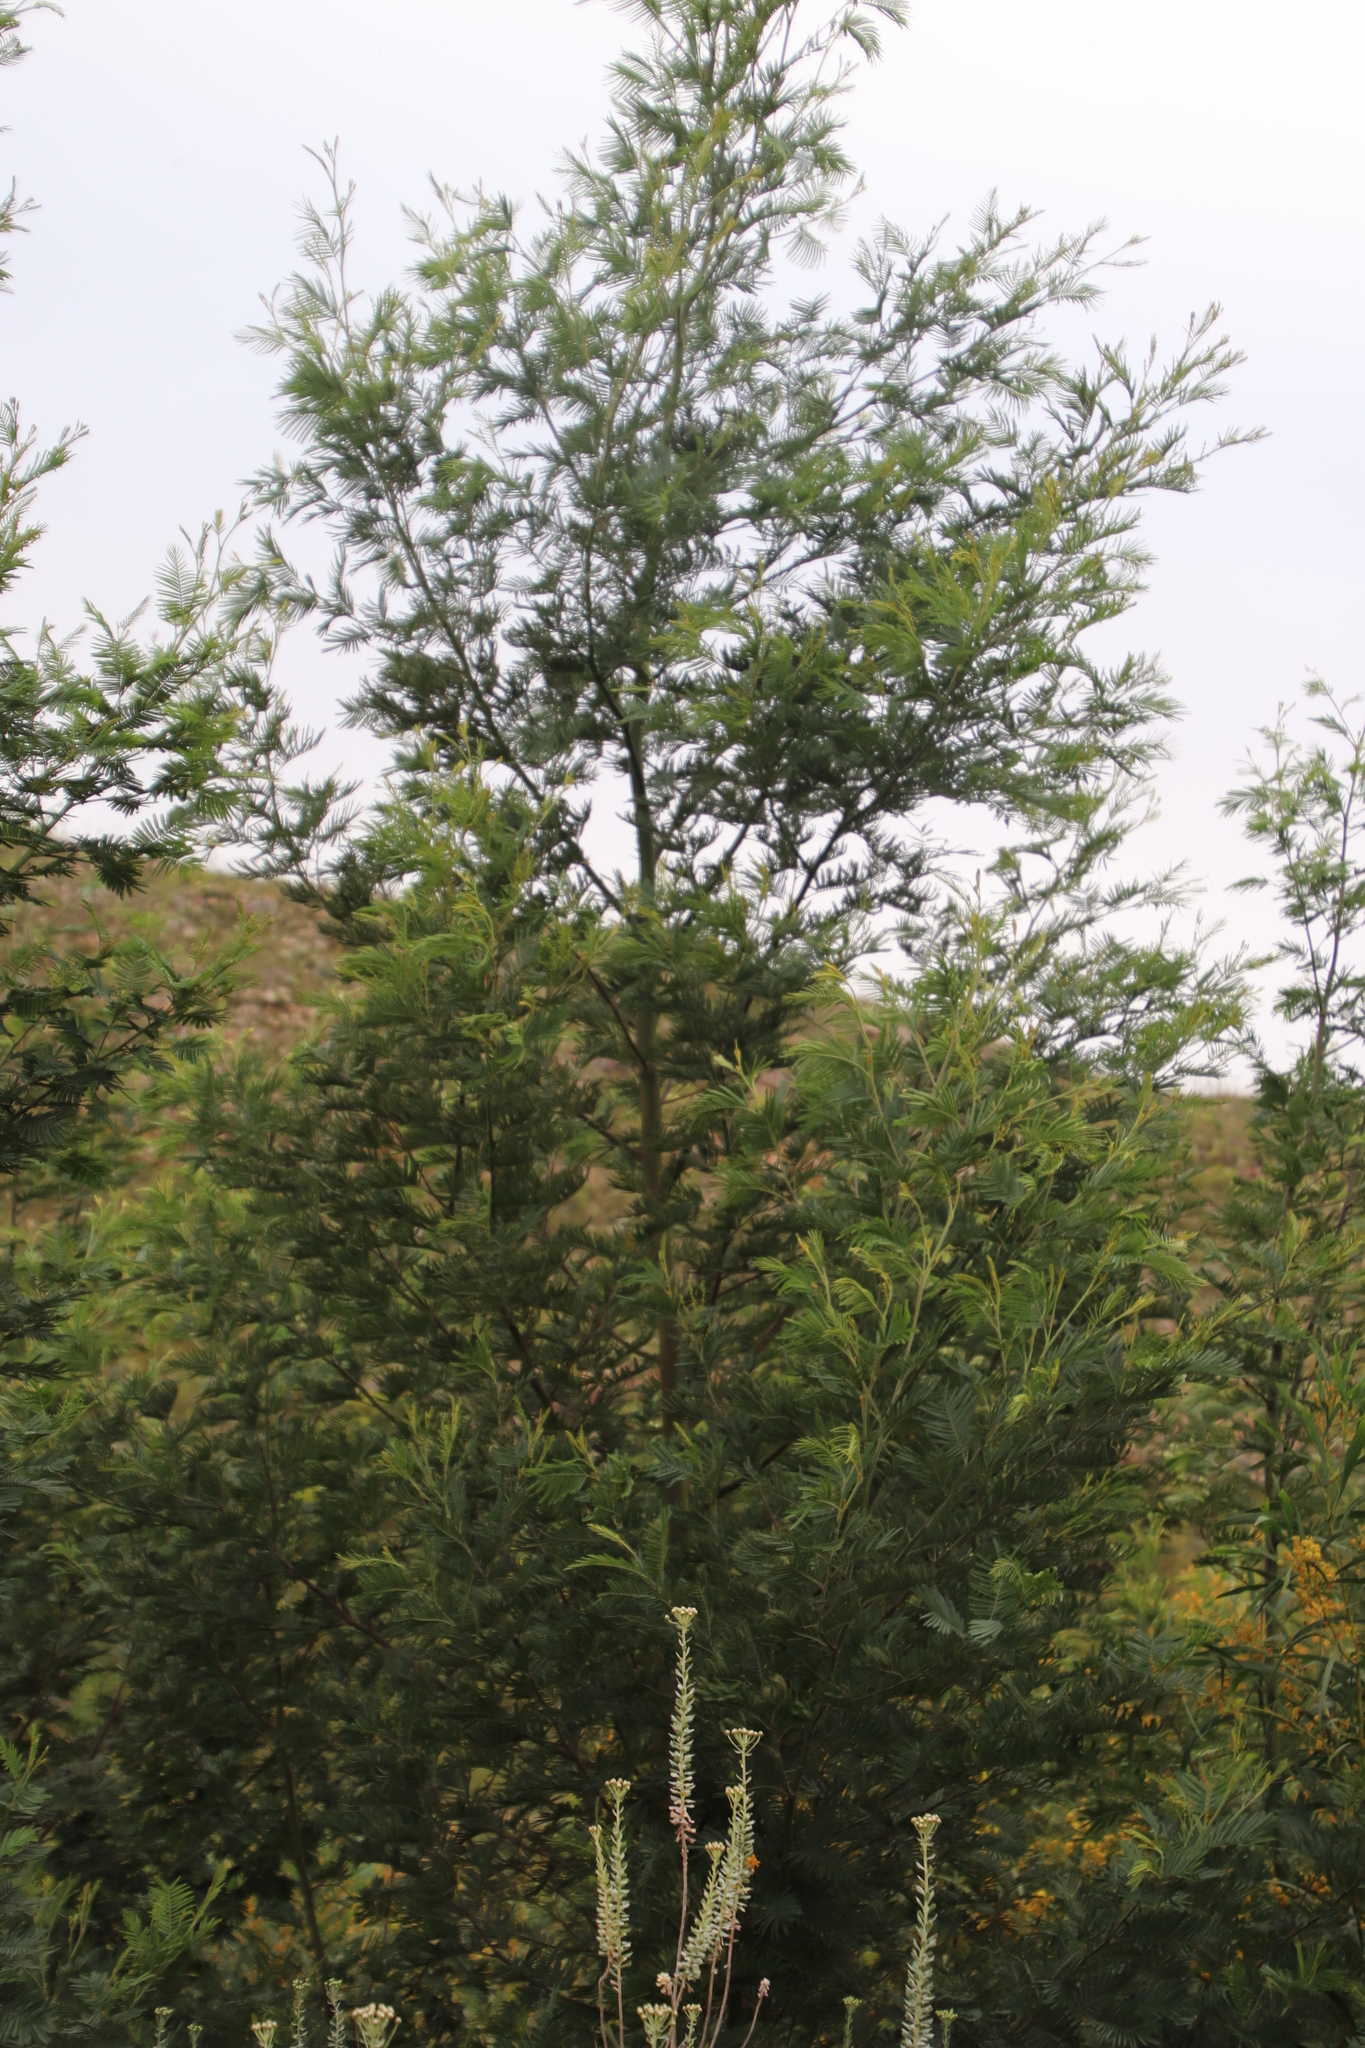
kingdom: Plantae
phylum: Tracheophyta
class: Magnoliopsida
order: Fabales
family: Fabaceae
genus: Acacia
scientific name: Acacia mearnsii
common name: Black wattle
